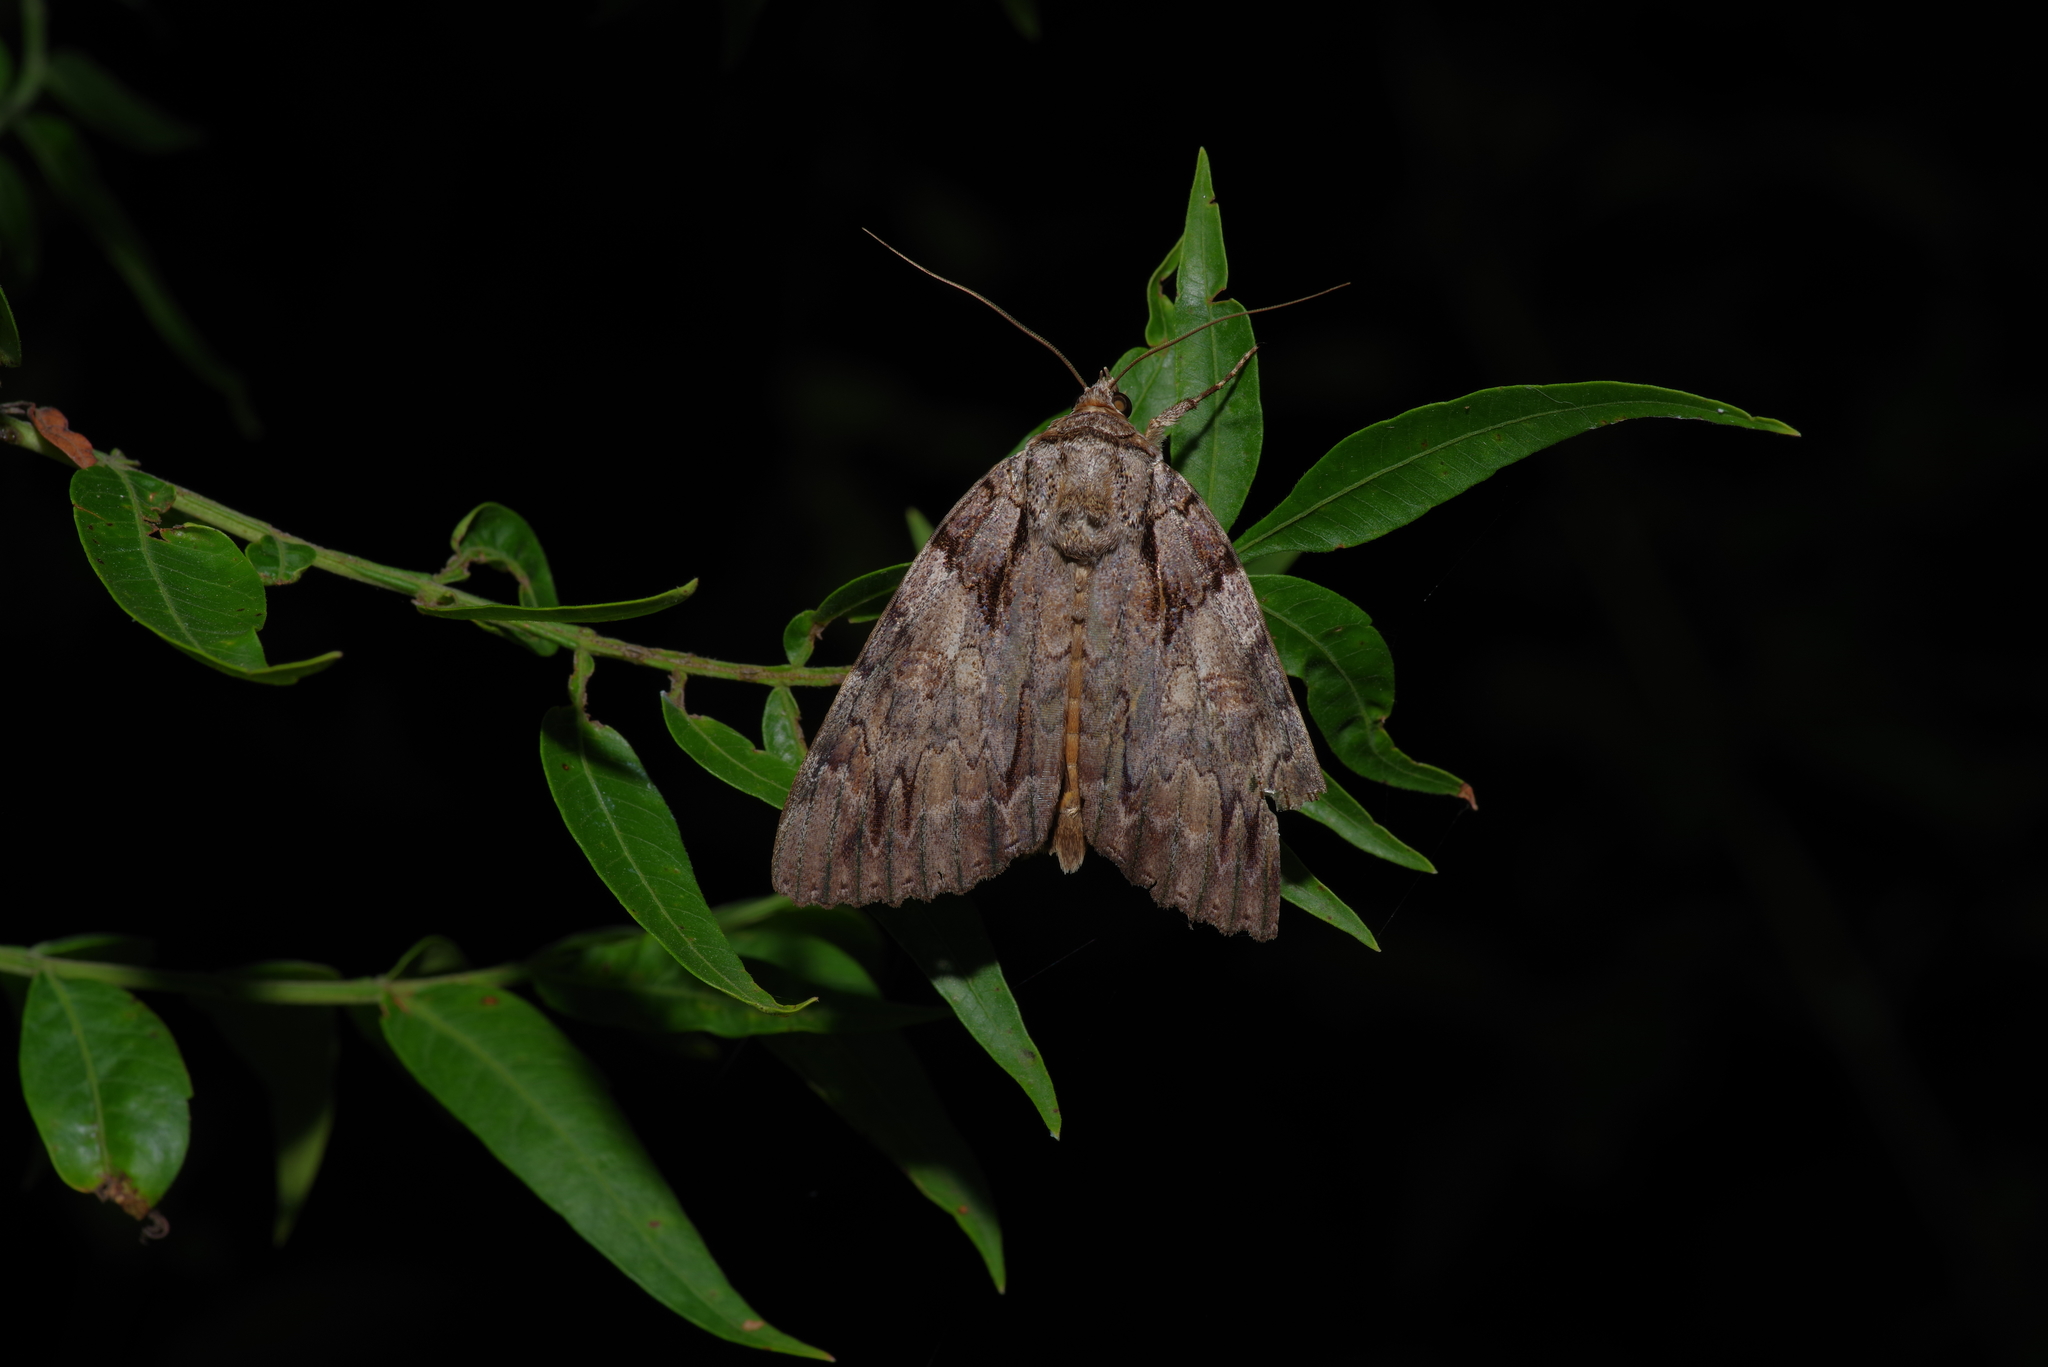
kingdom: Animalia
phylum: Arthropoda
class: Insecta
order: Lepidoptera
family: Erebidae
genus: Catocala
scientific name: Catocala neogama
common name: Bride underwing
